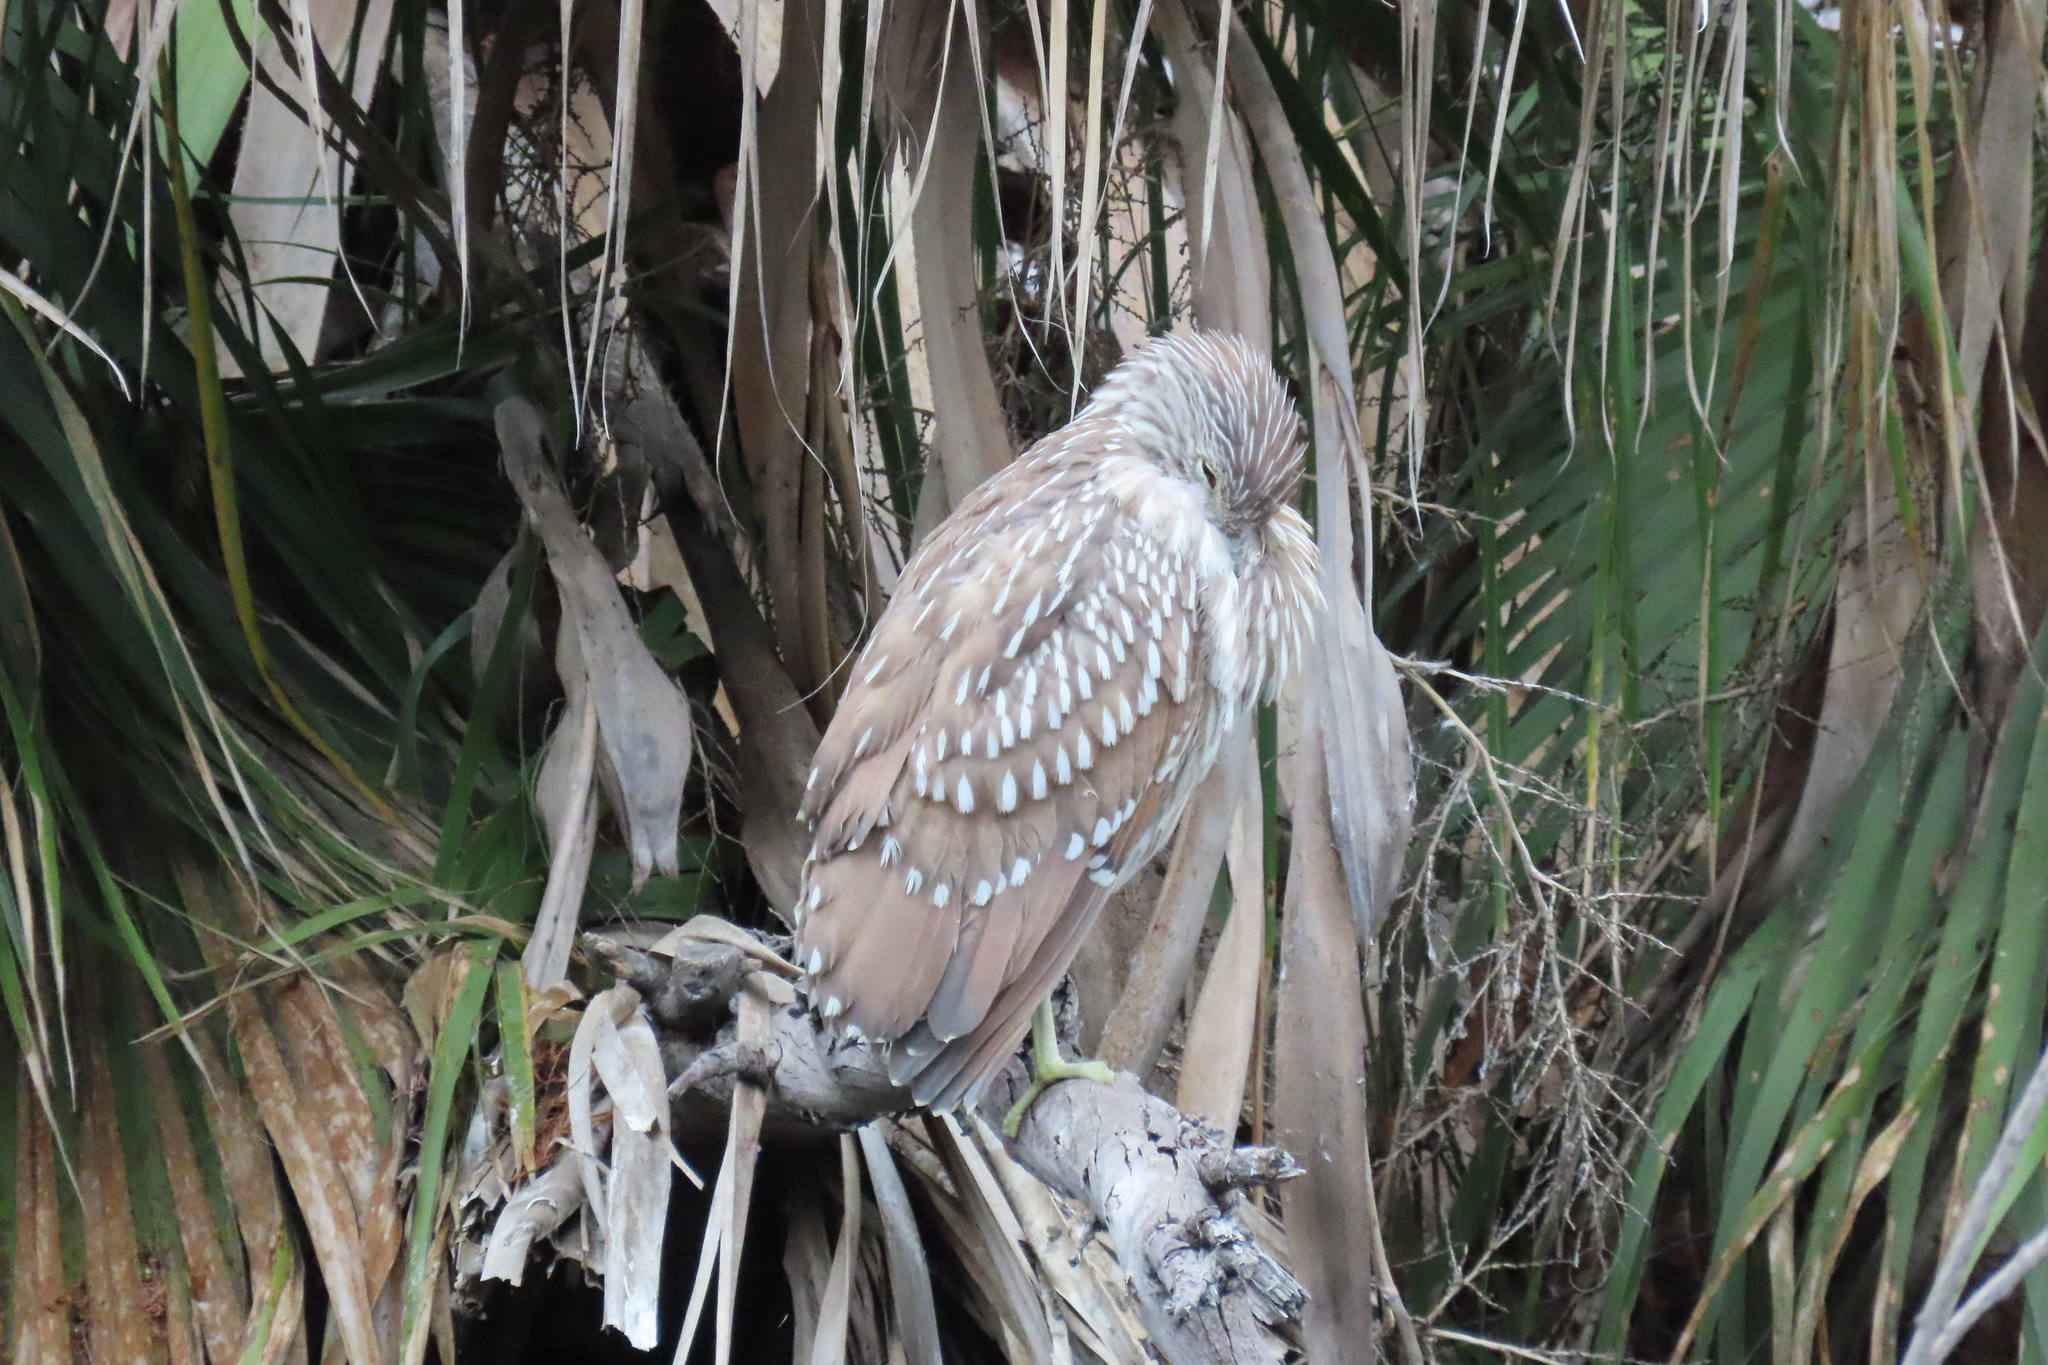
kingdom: Animalia
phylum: Chordata
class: Aves
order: Pelecaniformes
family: Ardeidae
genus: Nycticorax
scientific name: Nycticorax nycticorax
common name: Black-crowned night heron
